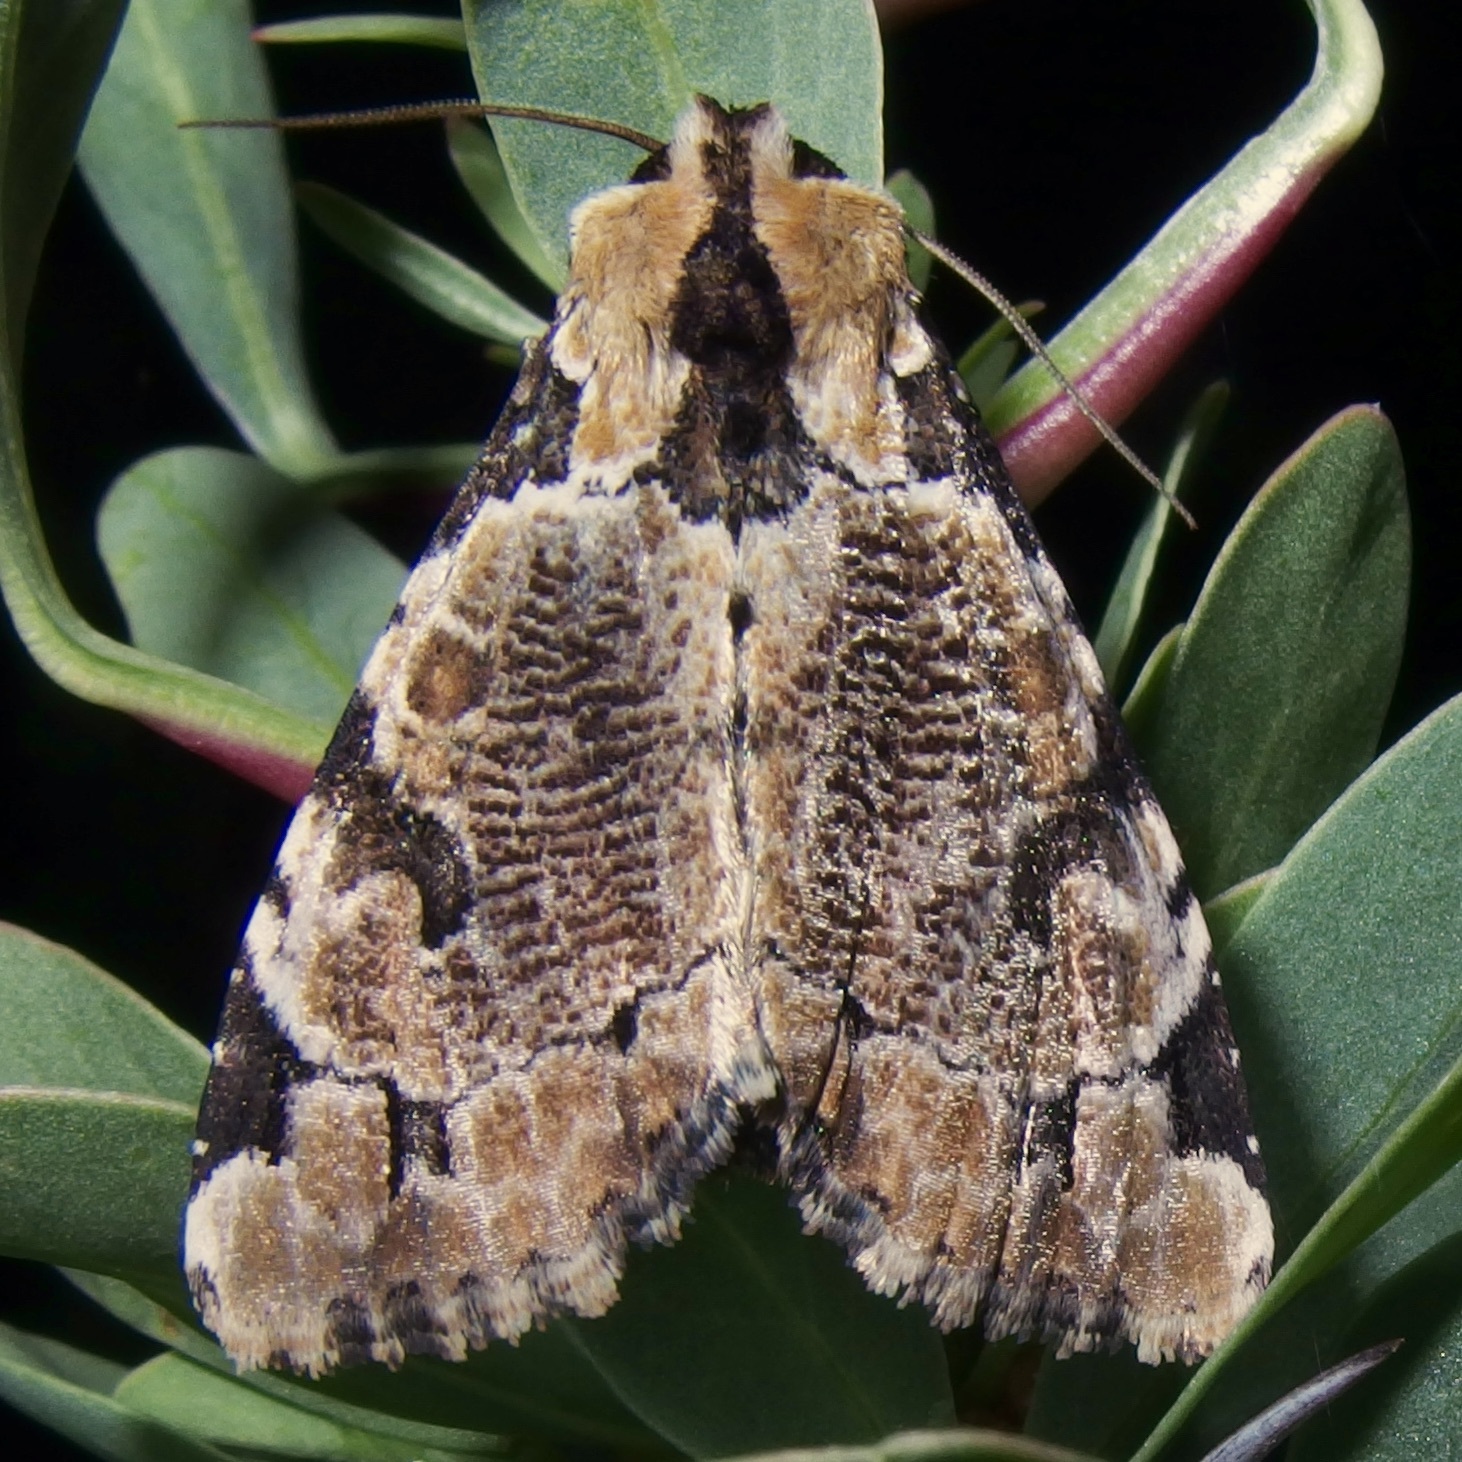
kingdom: Animalia
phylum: Arthropoda
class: Insecta
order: Lepidoptera
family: Noctuidae
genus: Stibaera
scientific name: Stibaera thyatiroides
